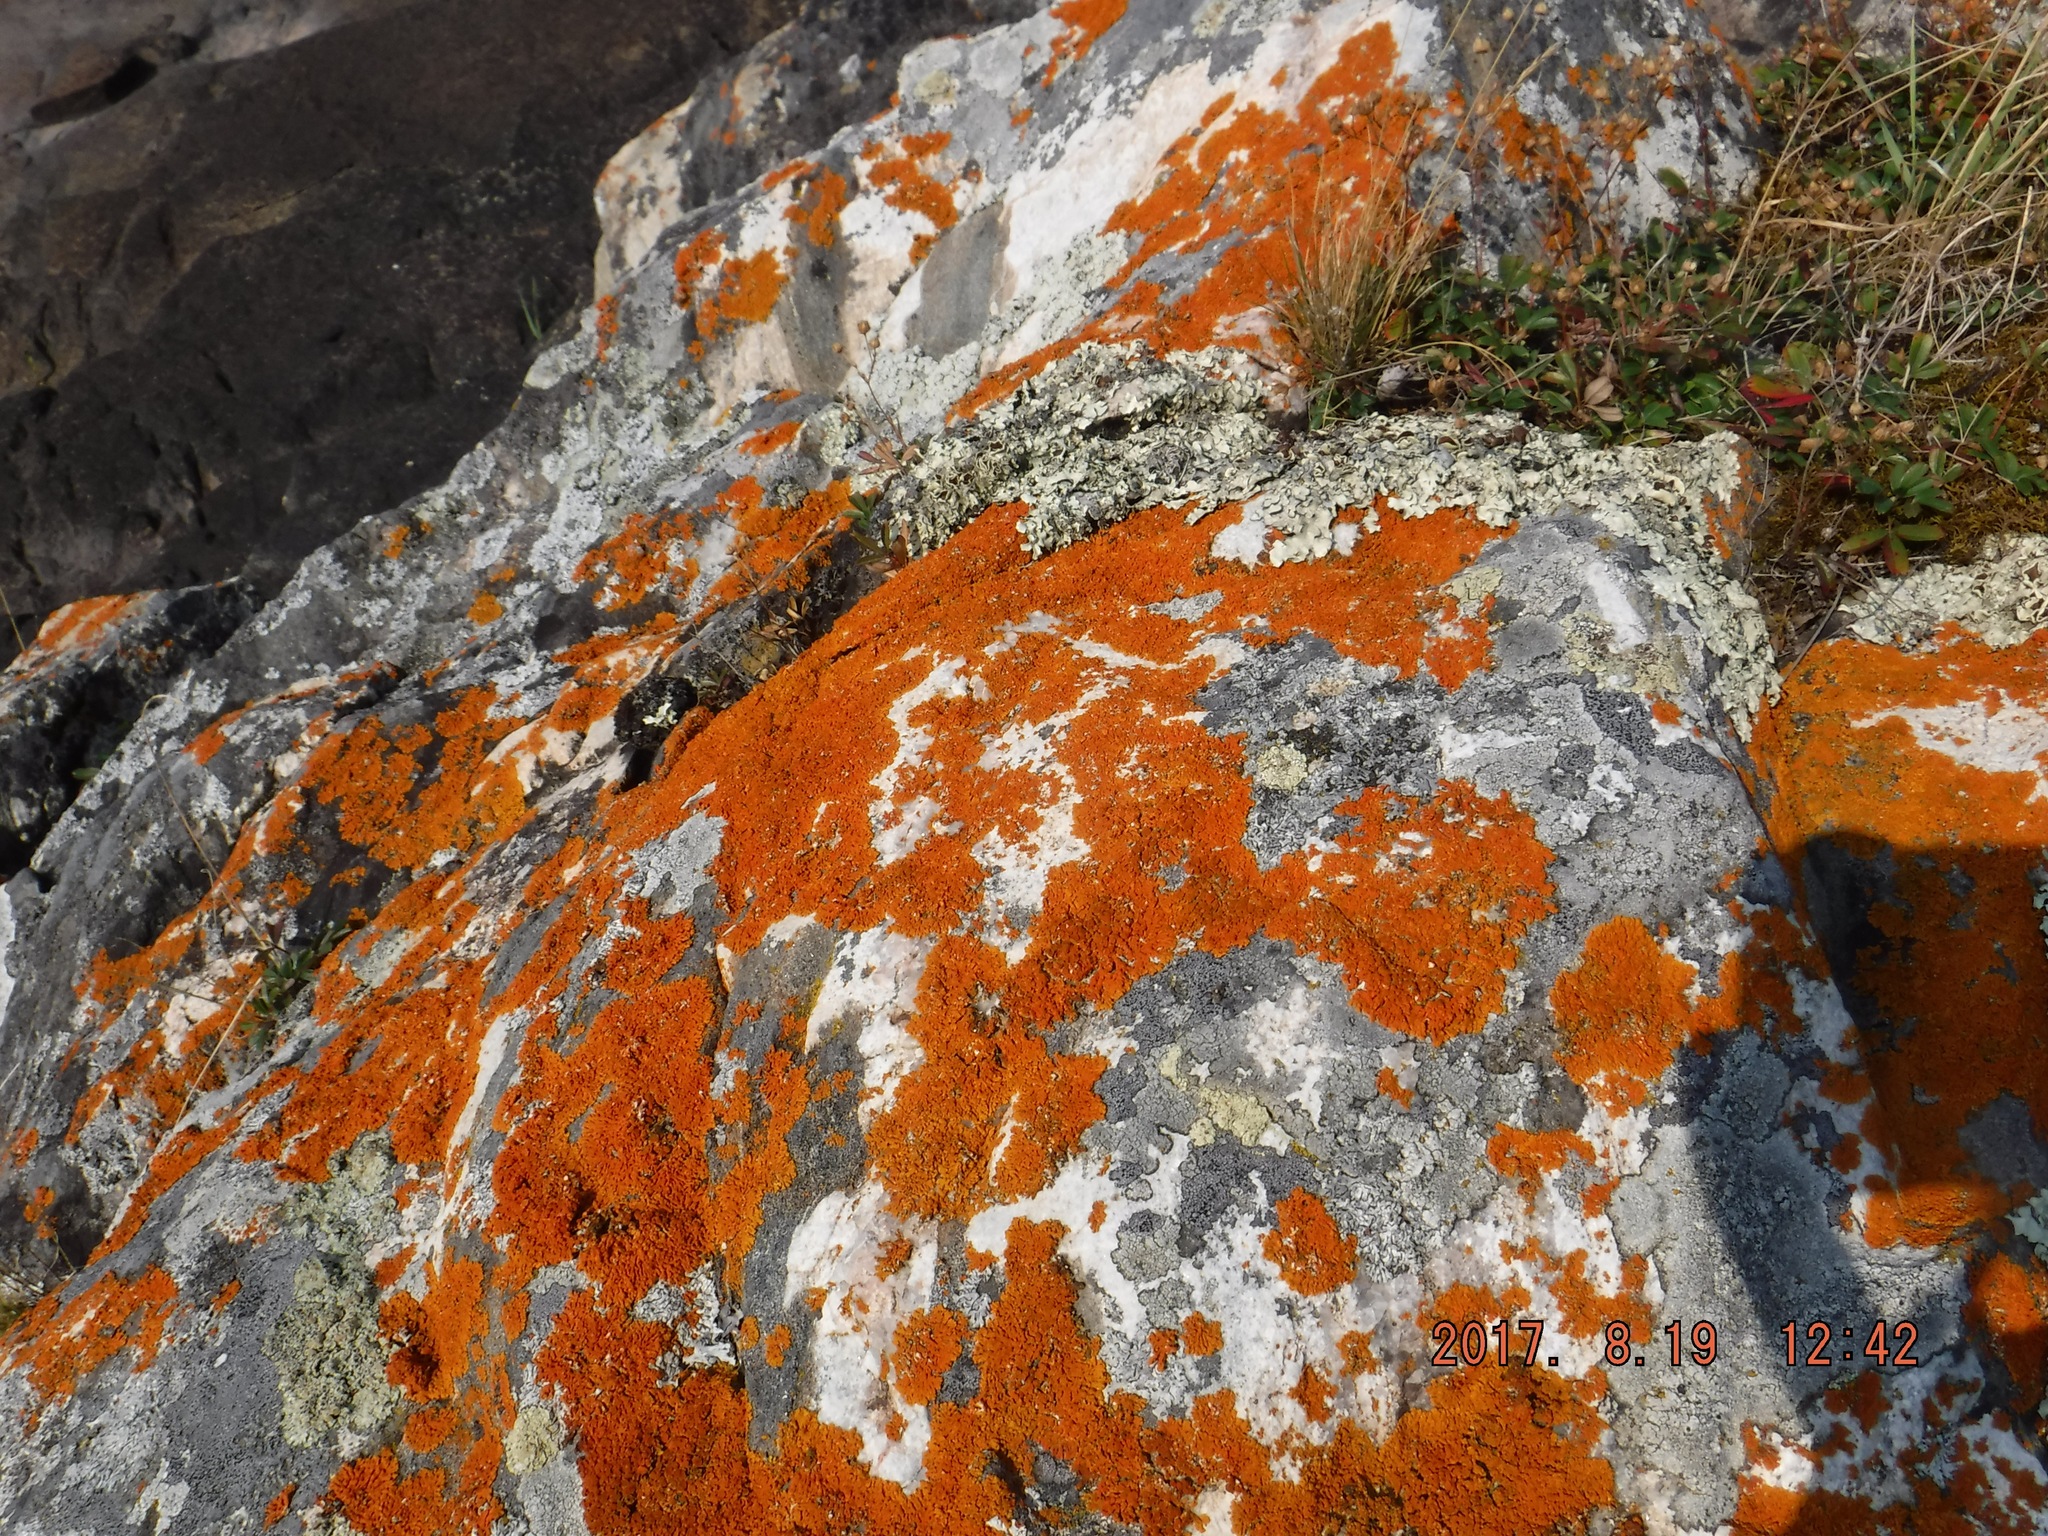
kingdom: Fungi
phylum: Ascomycota
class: Lecanoromycetes
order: Teloschistales
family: Teloschistaceae
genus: Xanthoria
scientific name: Xanthoria elegans
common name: Elegant sunburst lichen
